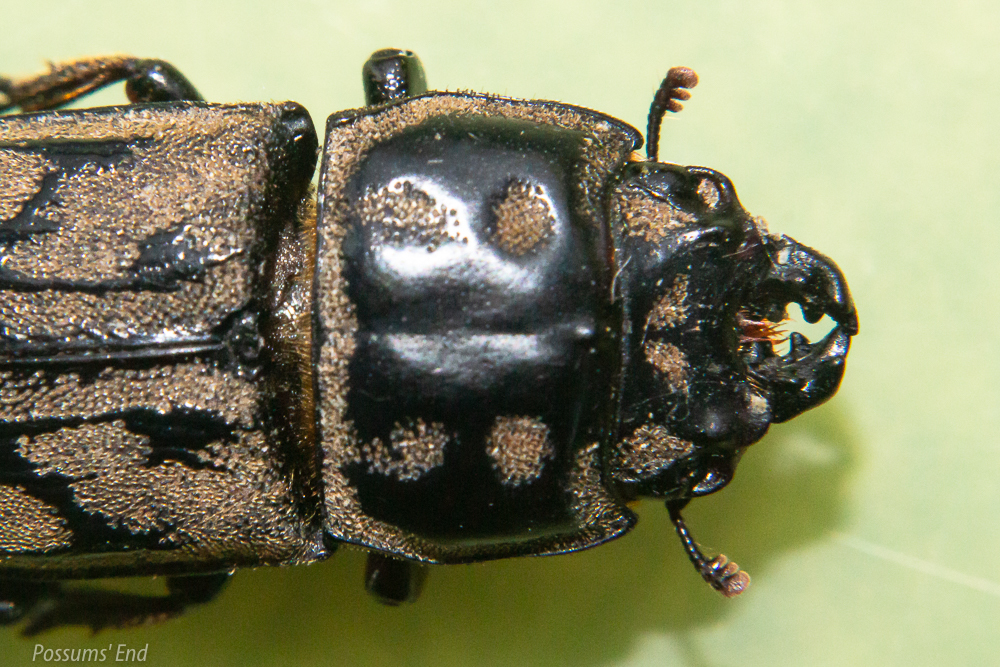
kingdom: Animalia
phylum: Arthropoda
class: Insecta
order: Coleoptera
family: Lucanidae
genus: Paralissotes
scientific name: Paralissotes reticulatus
